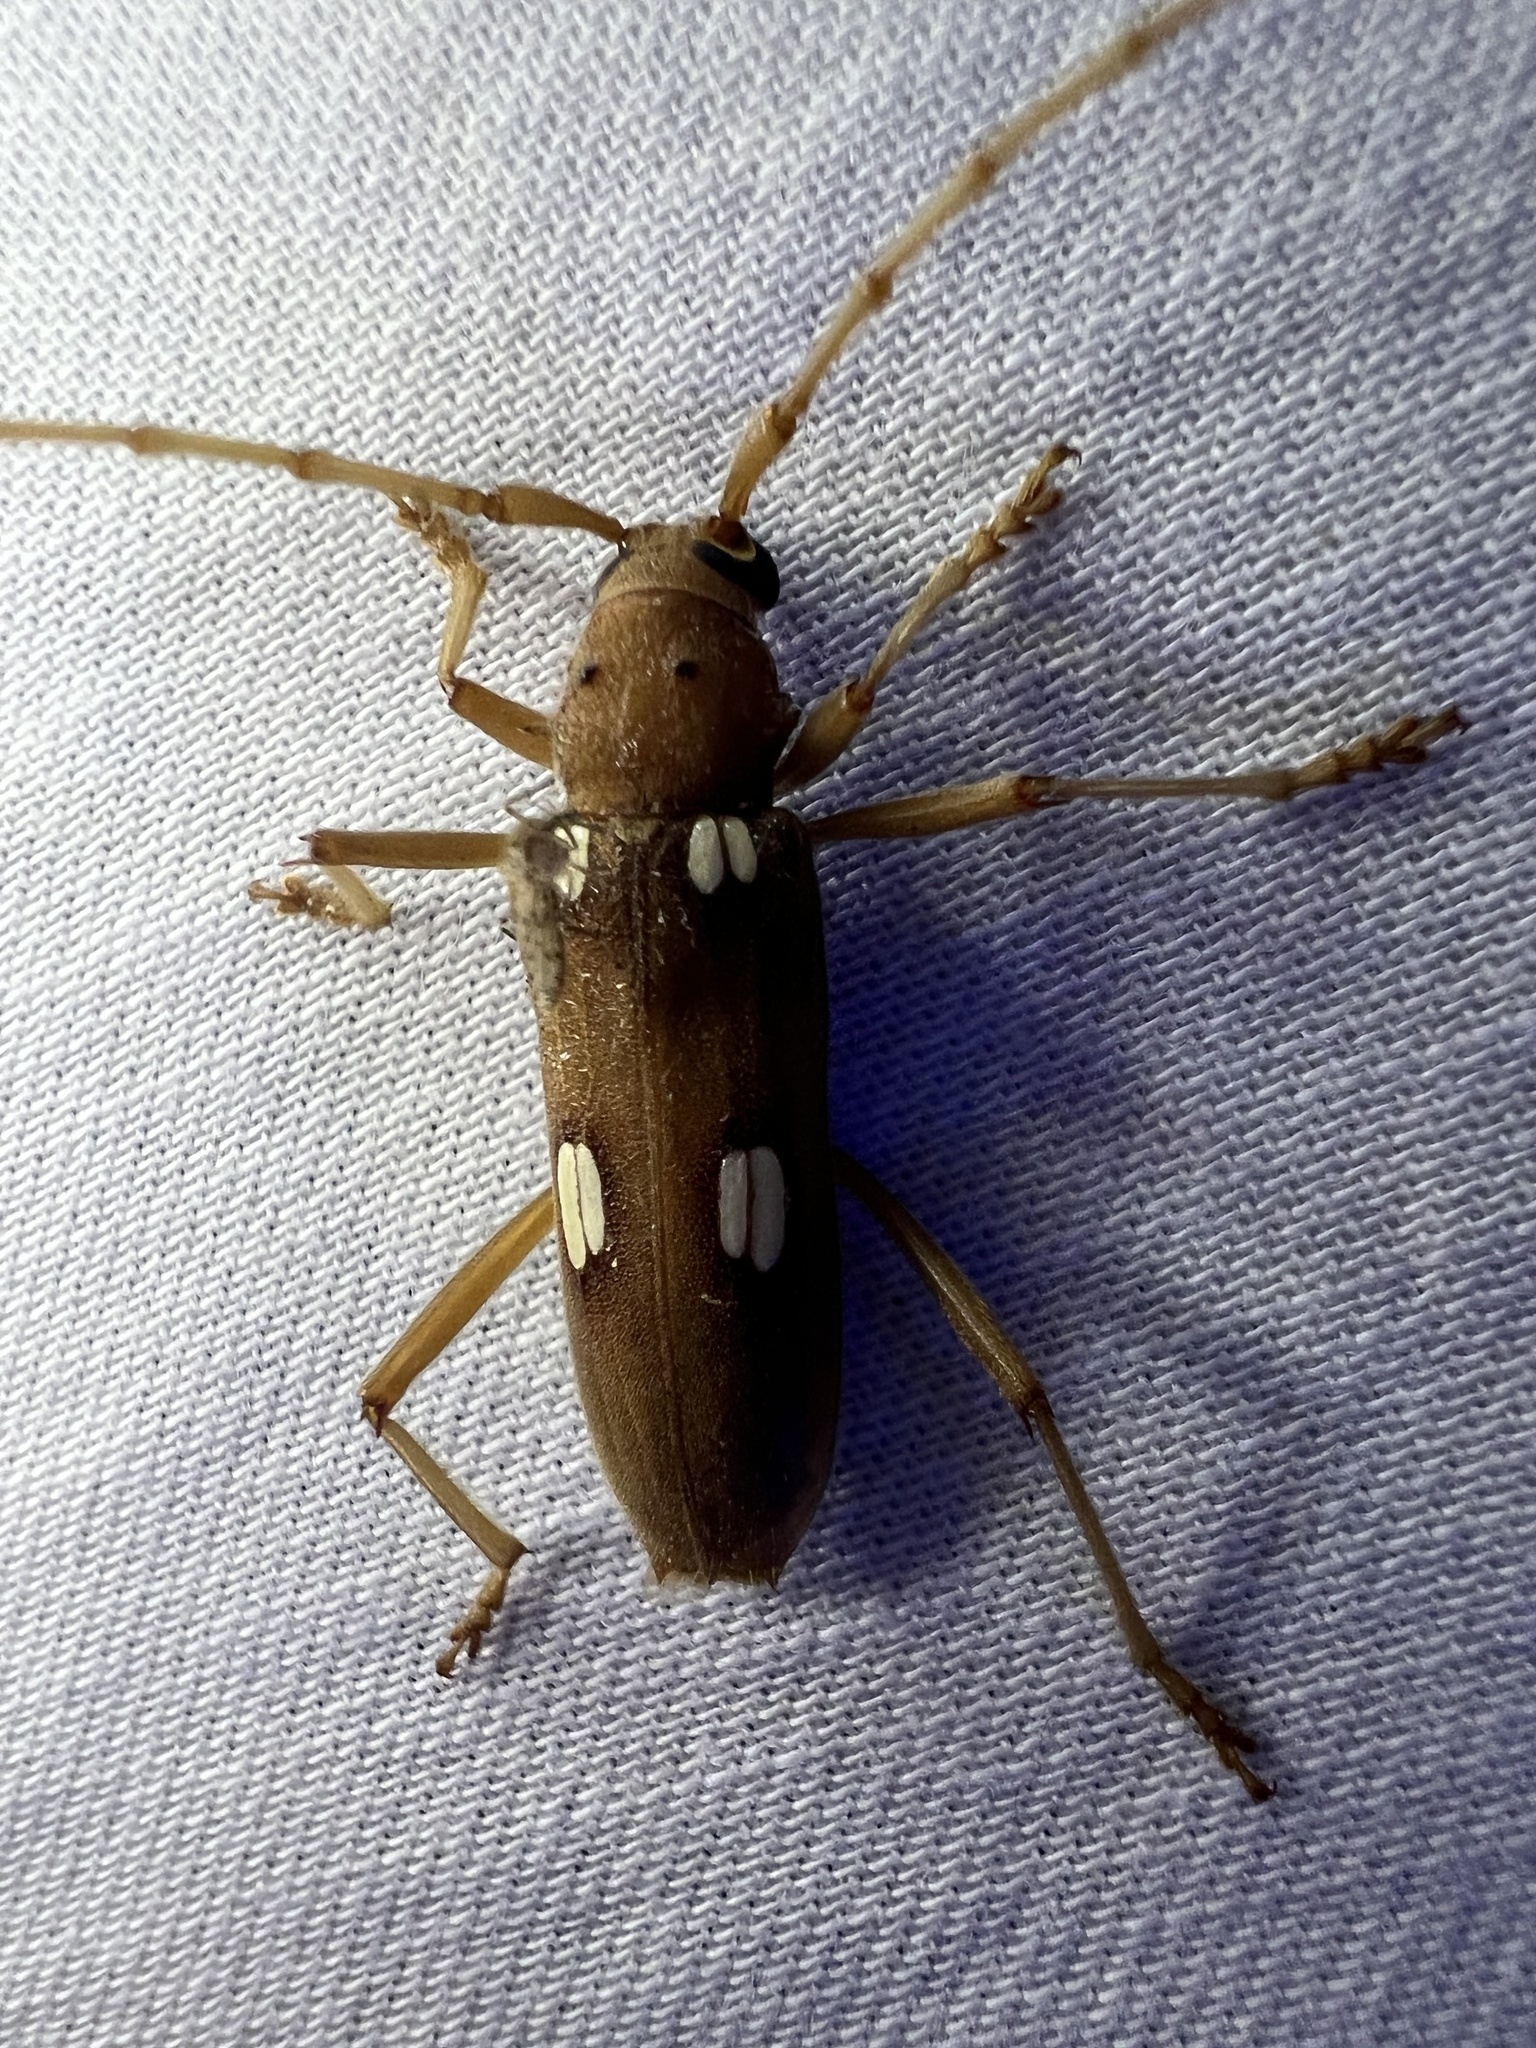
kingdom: Animalia
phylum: Arthropoda
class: Insecta
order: Coleoptera
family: Cerambycidae
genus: Eburia
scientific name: Eburia quadrigeminata
